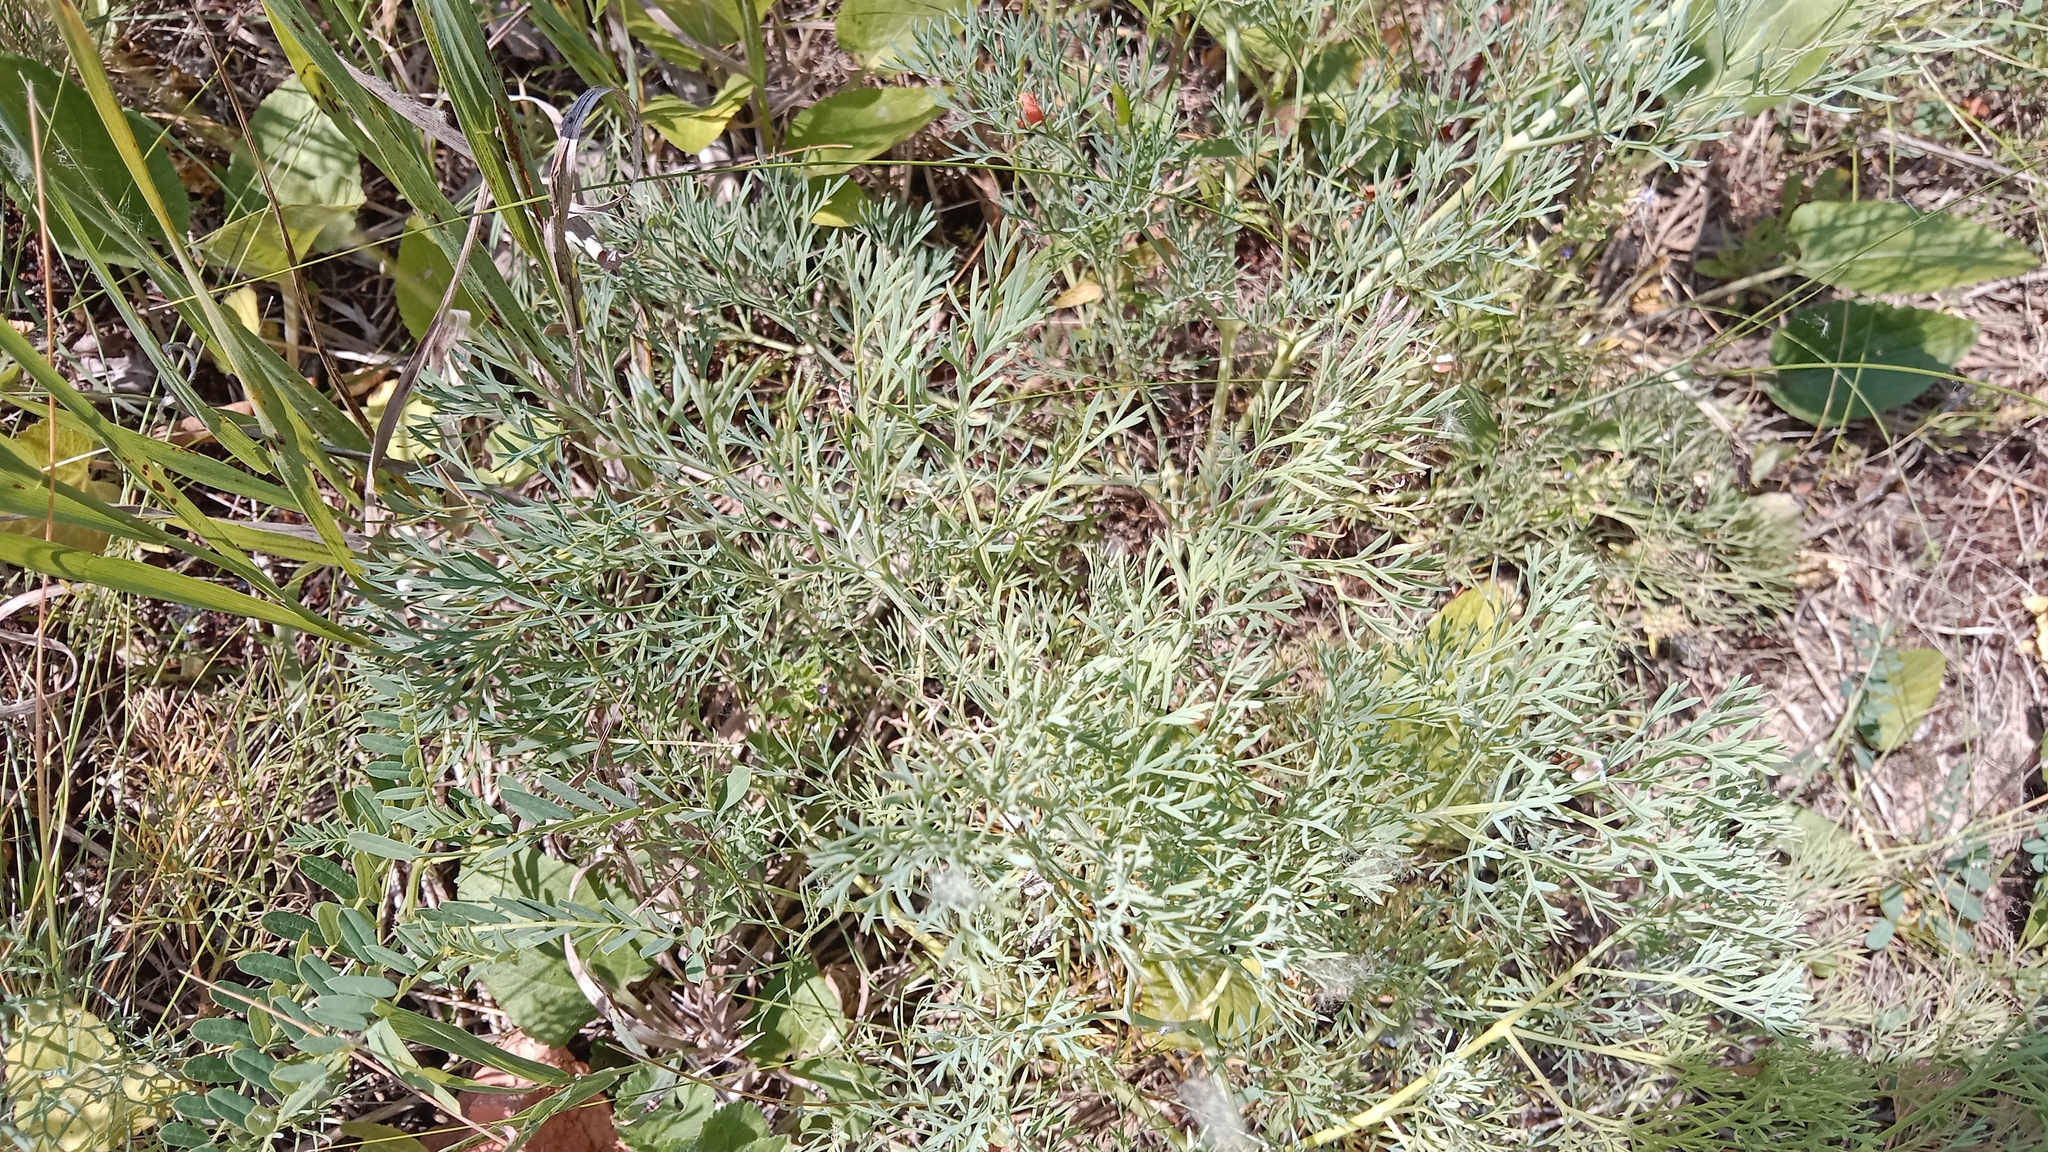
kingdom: Plantae
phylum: Tracheophyta
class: Magnoliopsida
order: Apiales
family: Apiaceae
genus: Seseli
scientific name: Seseli pallasii
